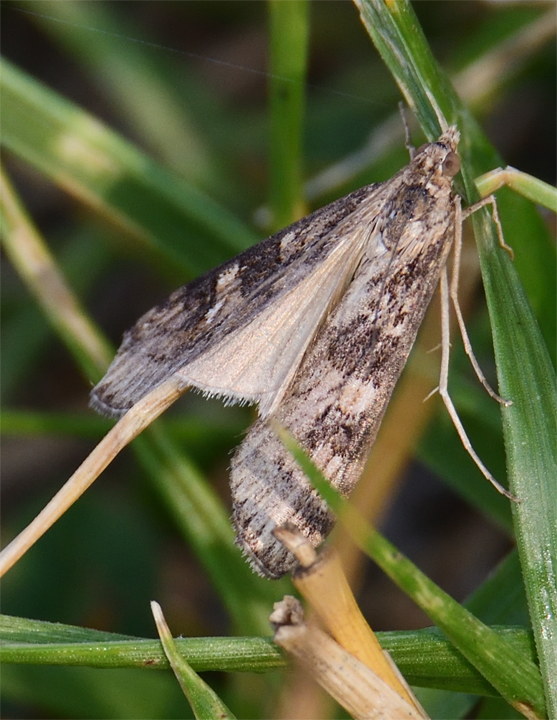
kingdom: Animalia
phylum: Arthropoda
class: Insecta
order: Lepidoptera
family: Crambidae
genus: Nomophila
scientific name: Nomophila nearctica
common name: American rush veneer
